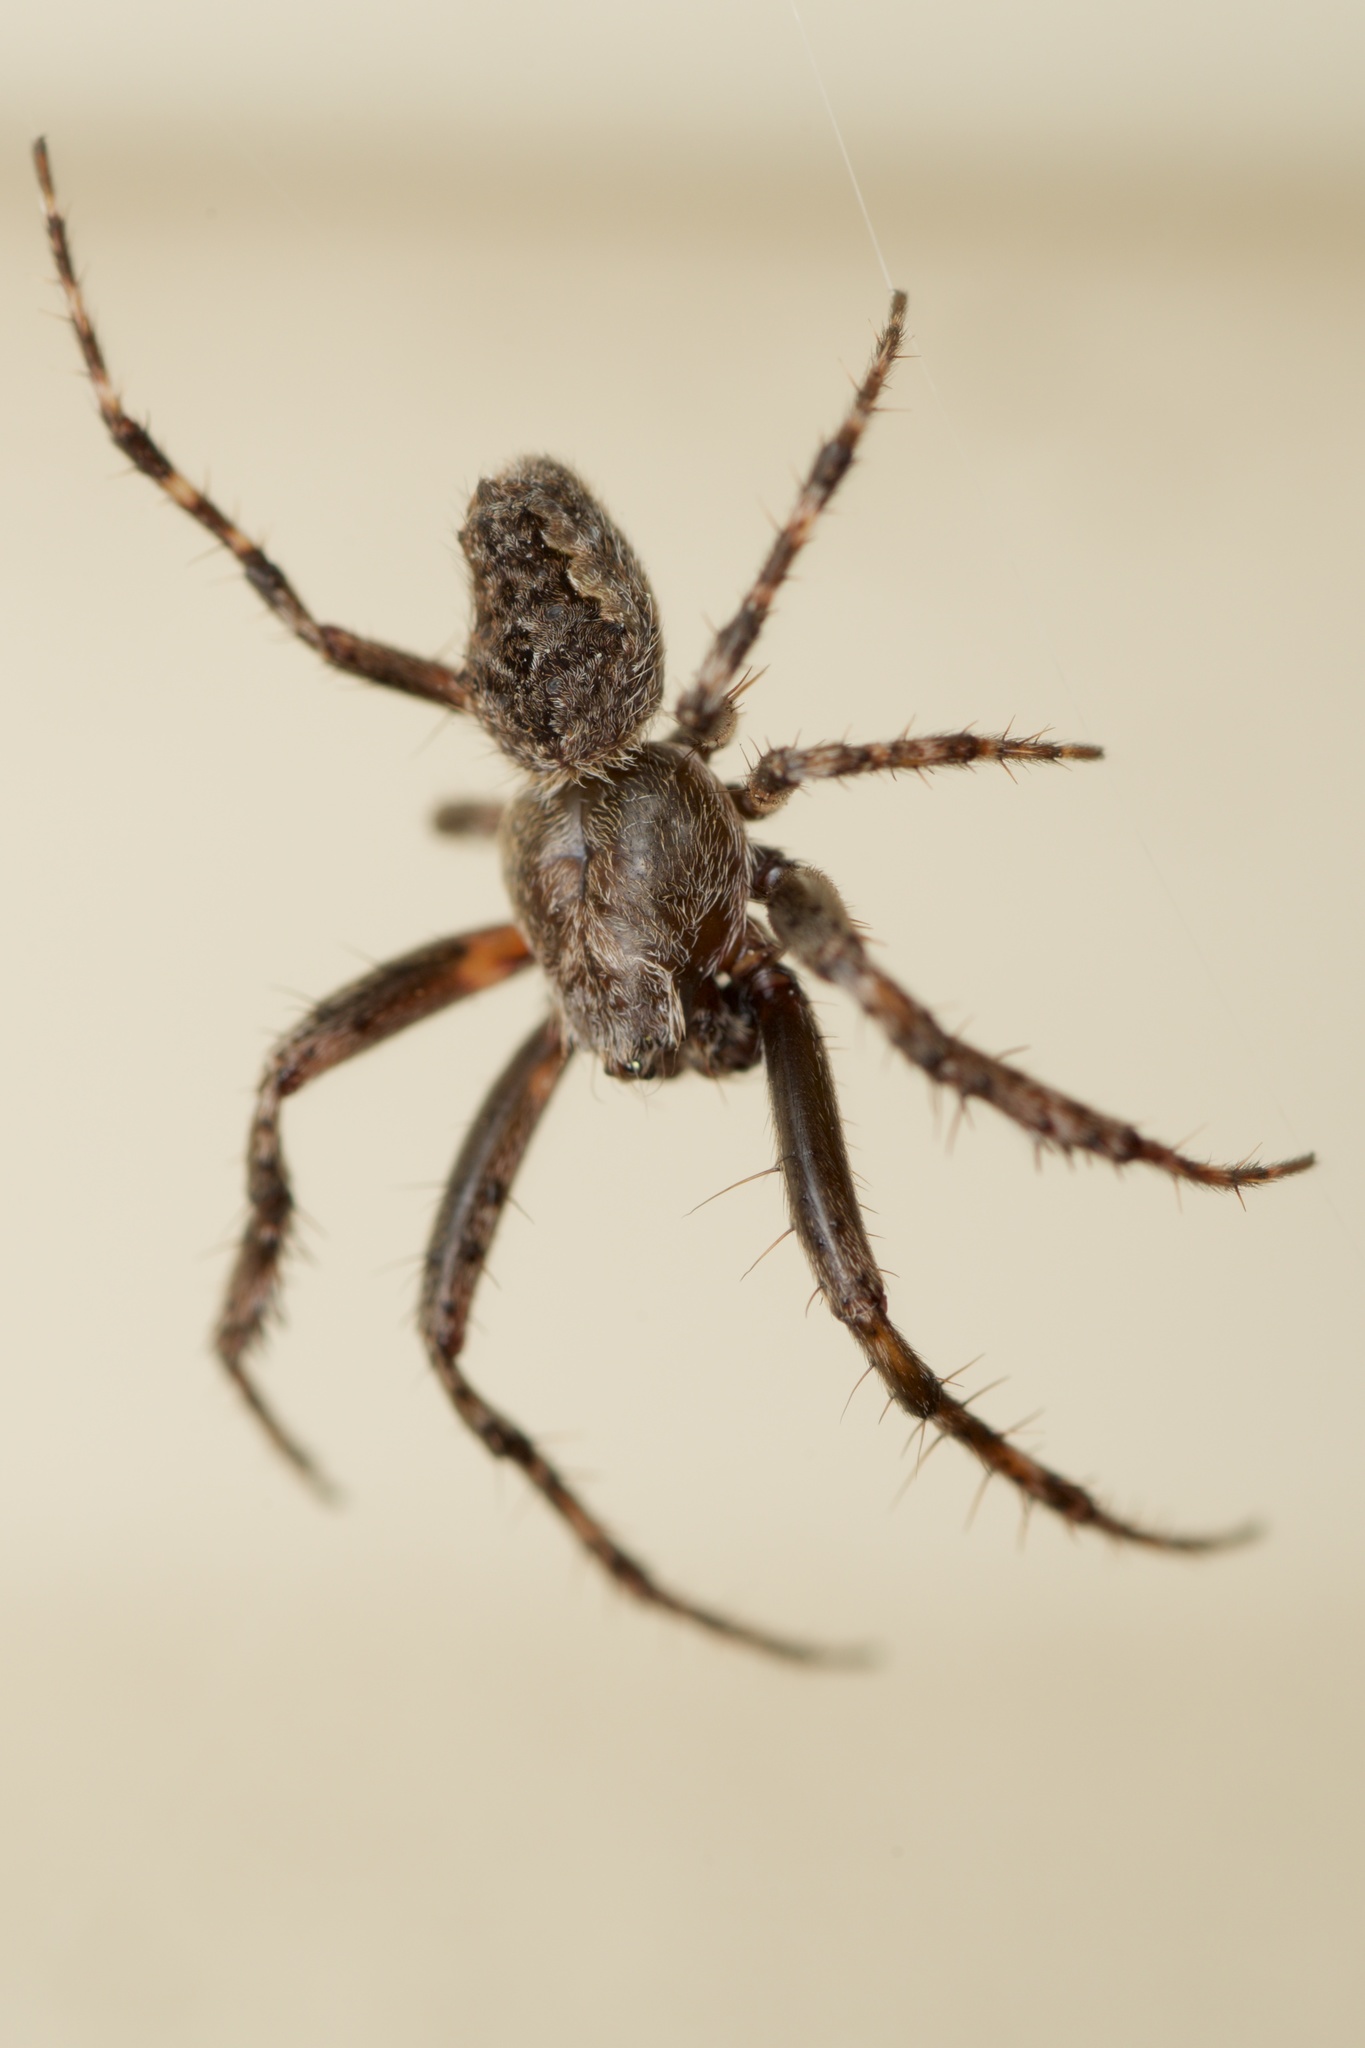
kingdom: Animalia
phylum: Arthropoda
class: Arachnida
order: Araneae
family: Araneidae
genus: Eriophora
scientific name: Eriophora pustulosa
